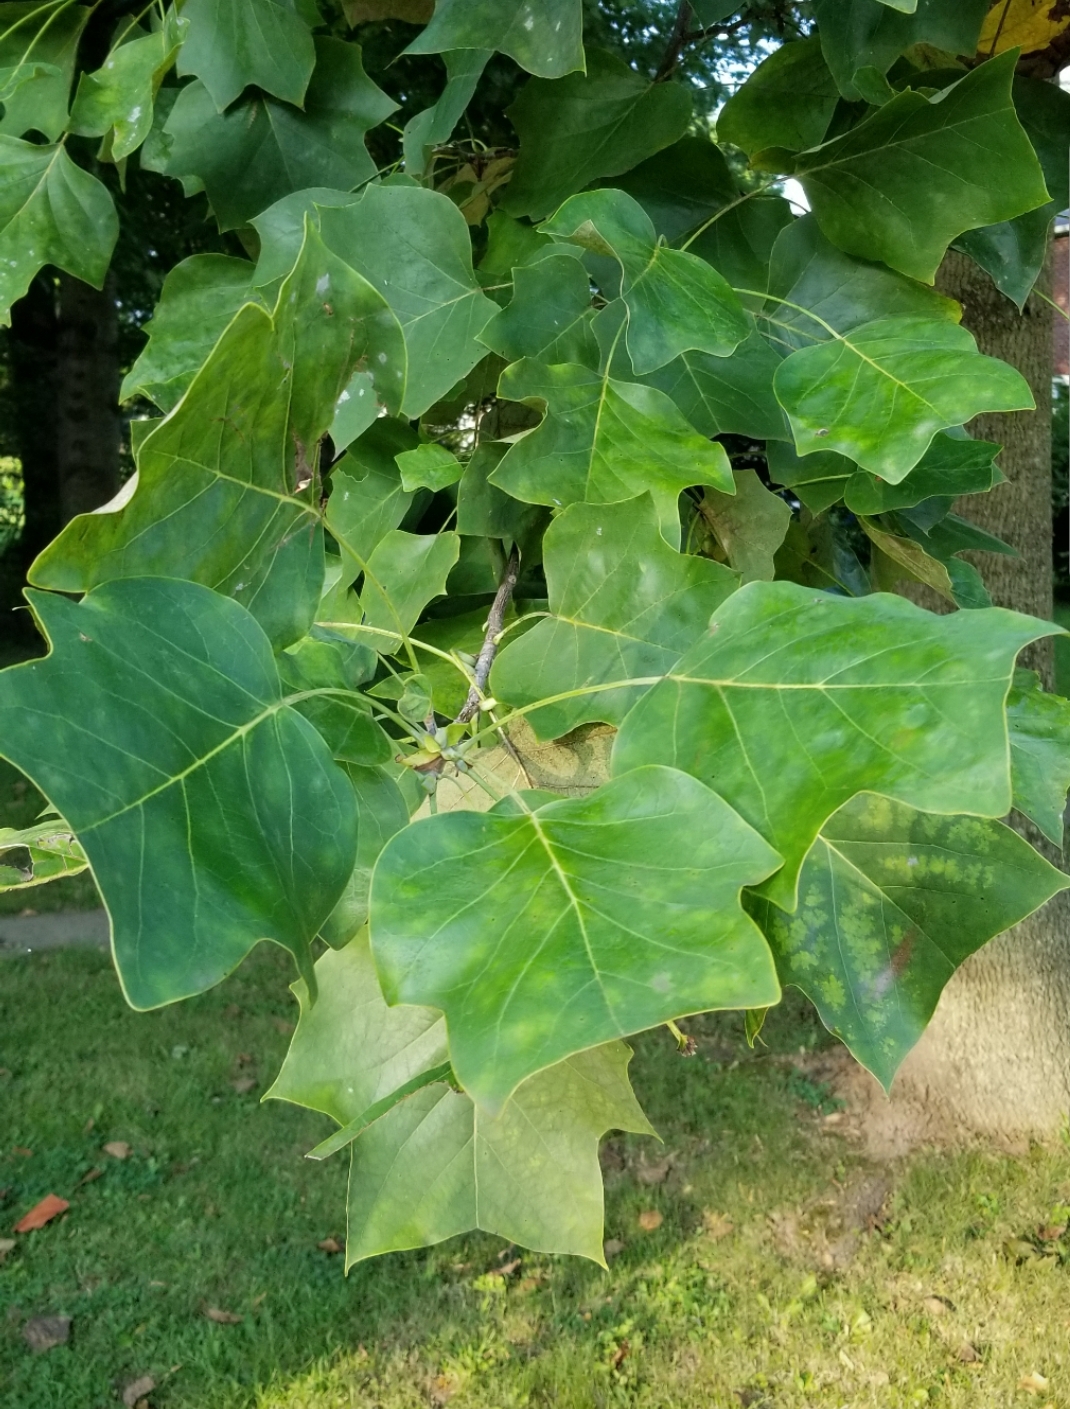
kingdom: Plantae
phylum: Tracheophyta
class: Magnoliopsida
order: Magnoliales
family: Magnoliaceae
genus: Liriodendron
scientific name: Liriodendron tulipifera
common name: Tulip tree
